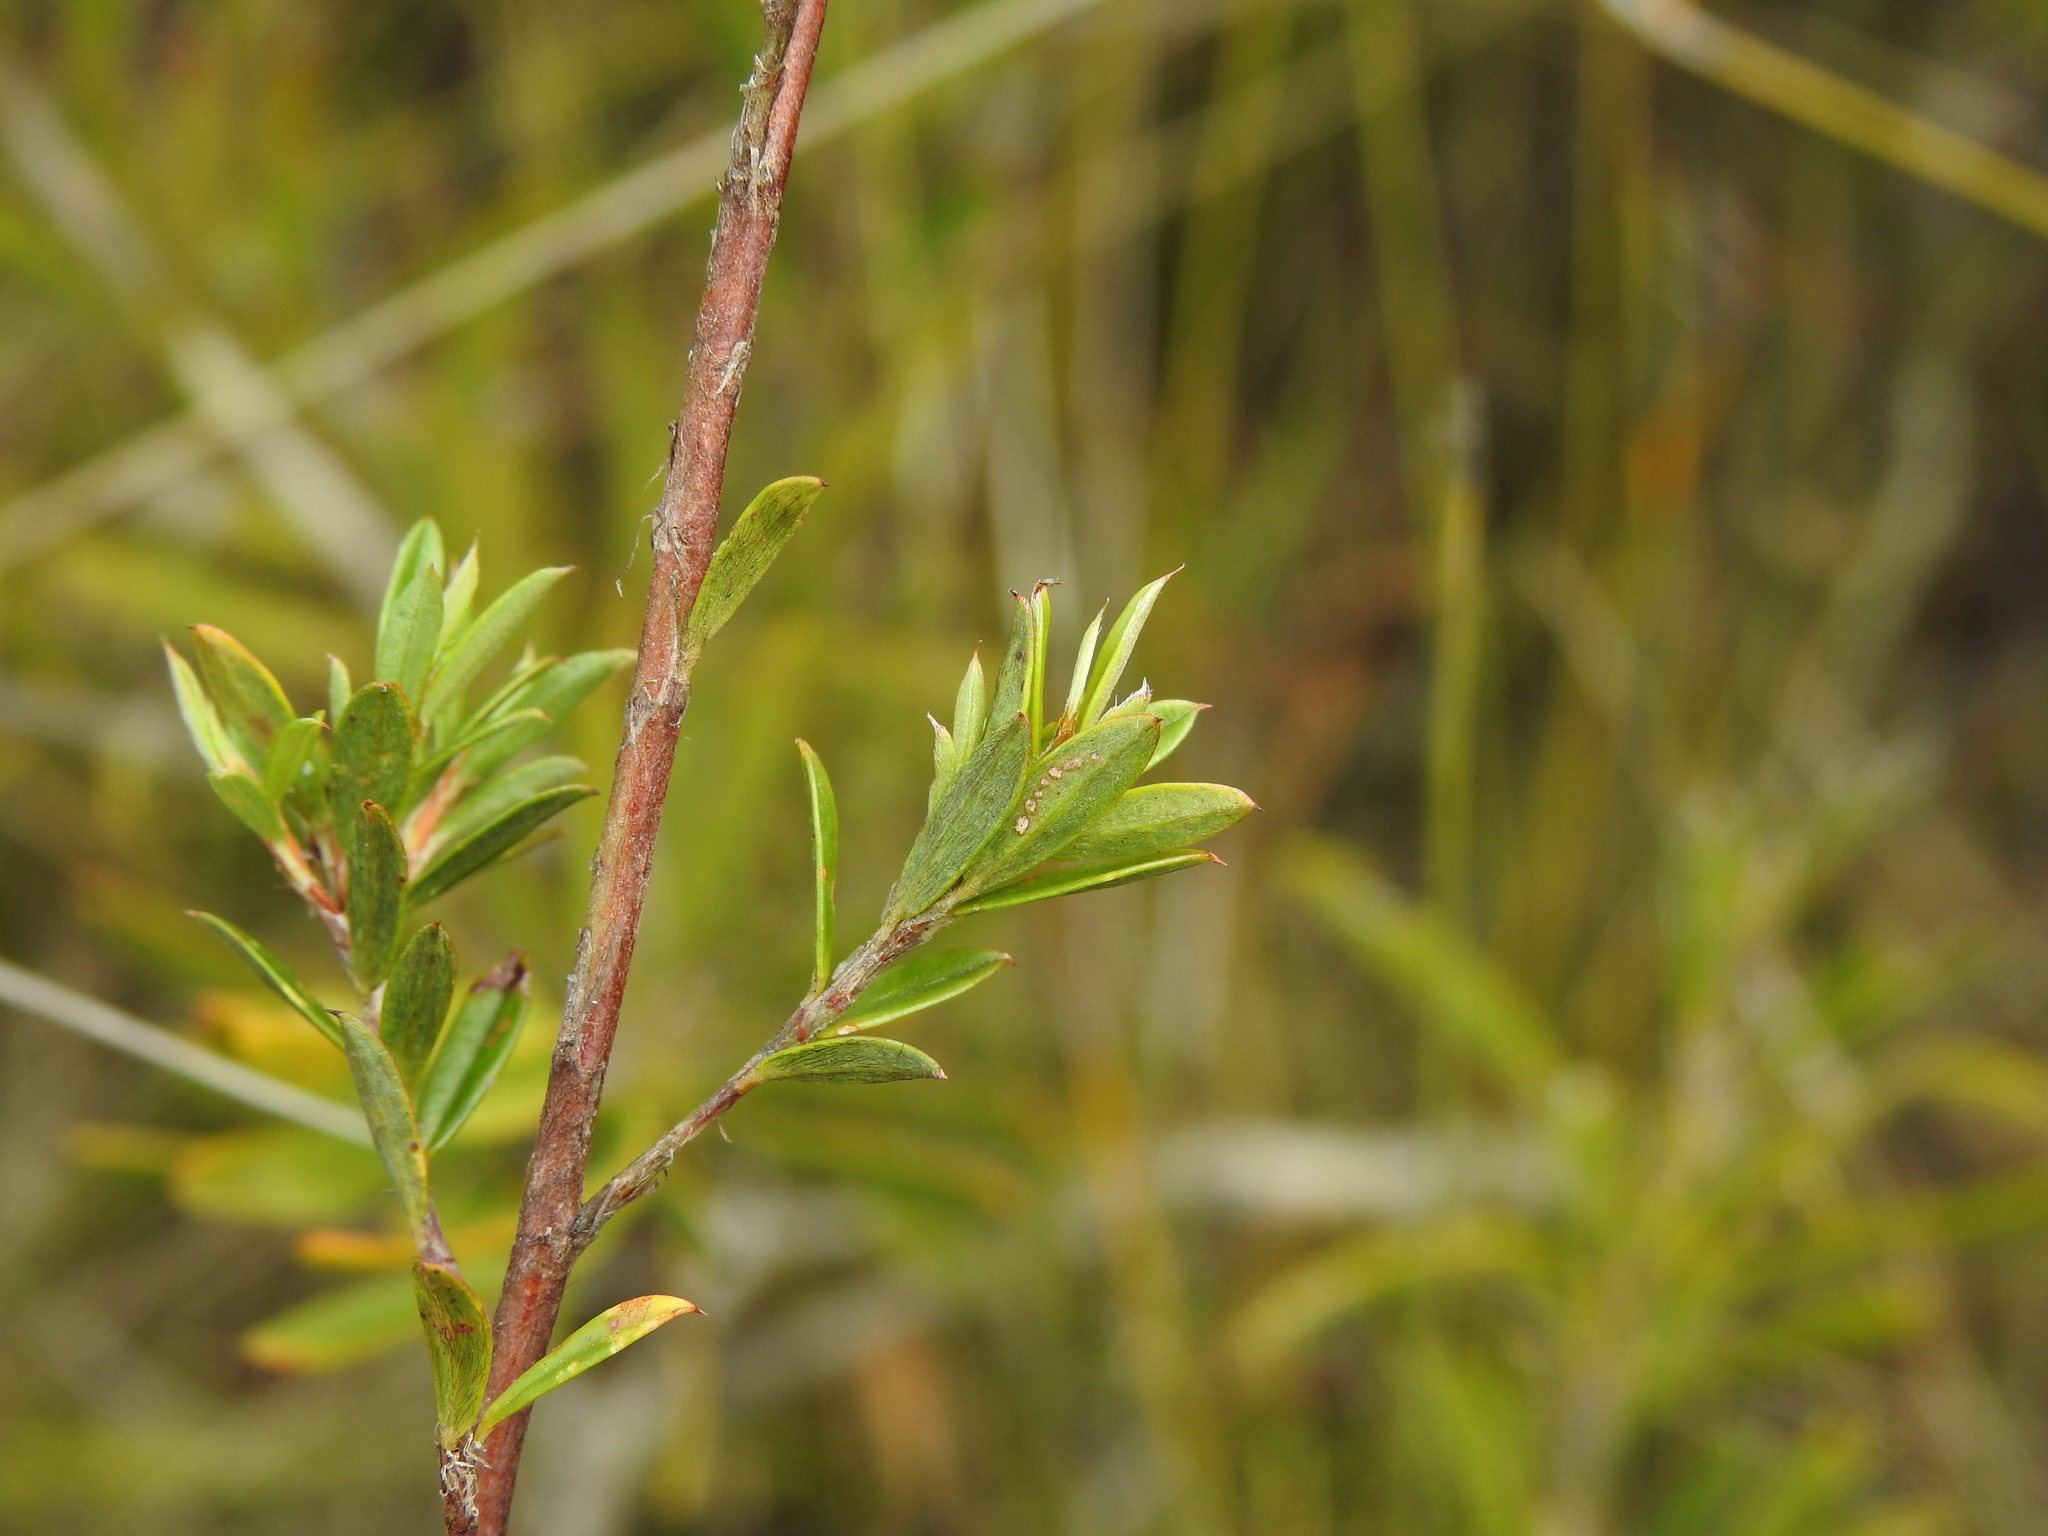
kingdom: Plantae
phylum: Tracheophyta
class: Magnoliopsida
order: Fabales
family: Fabaceae
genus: Pultenaea
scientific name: Pultenaea rariflora
